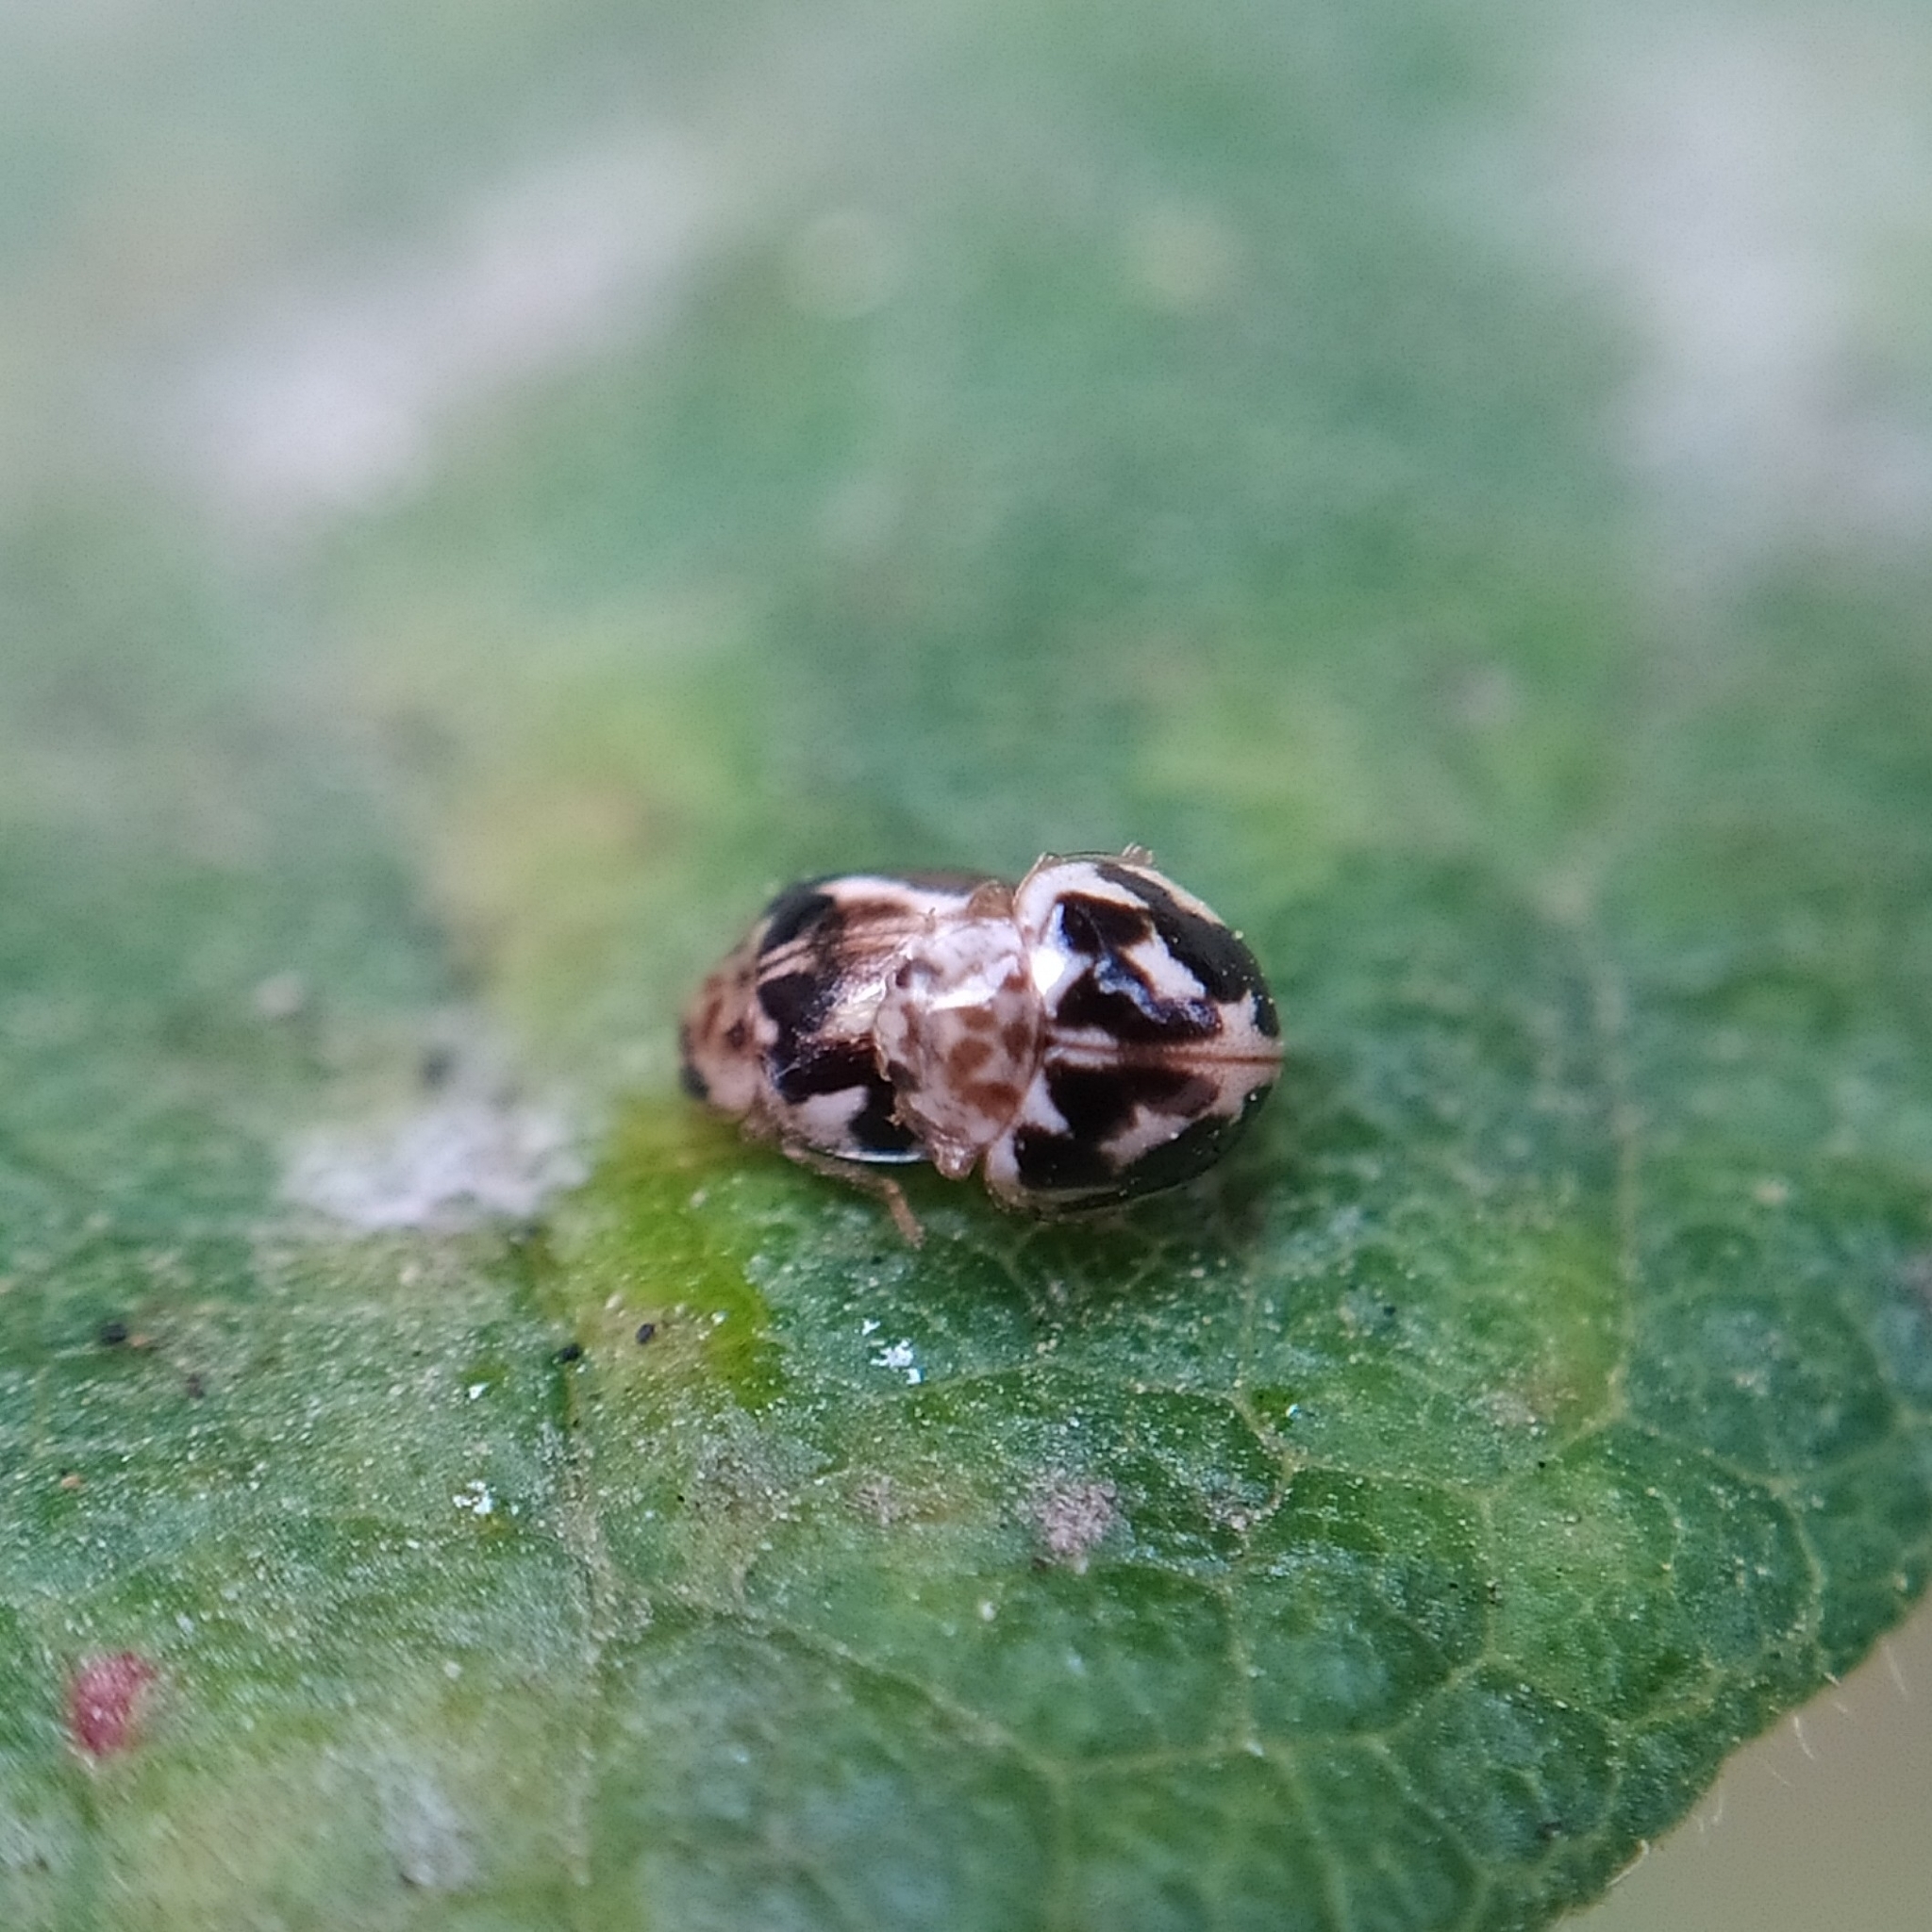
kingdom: Animalia
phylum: Arthropoda
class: Insecta
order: Coleoptera
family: Coccinellidae
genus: Psyllobora
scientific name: Psyllobora vigintimaculata
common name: Ladybird beetle
